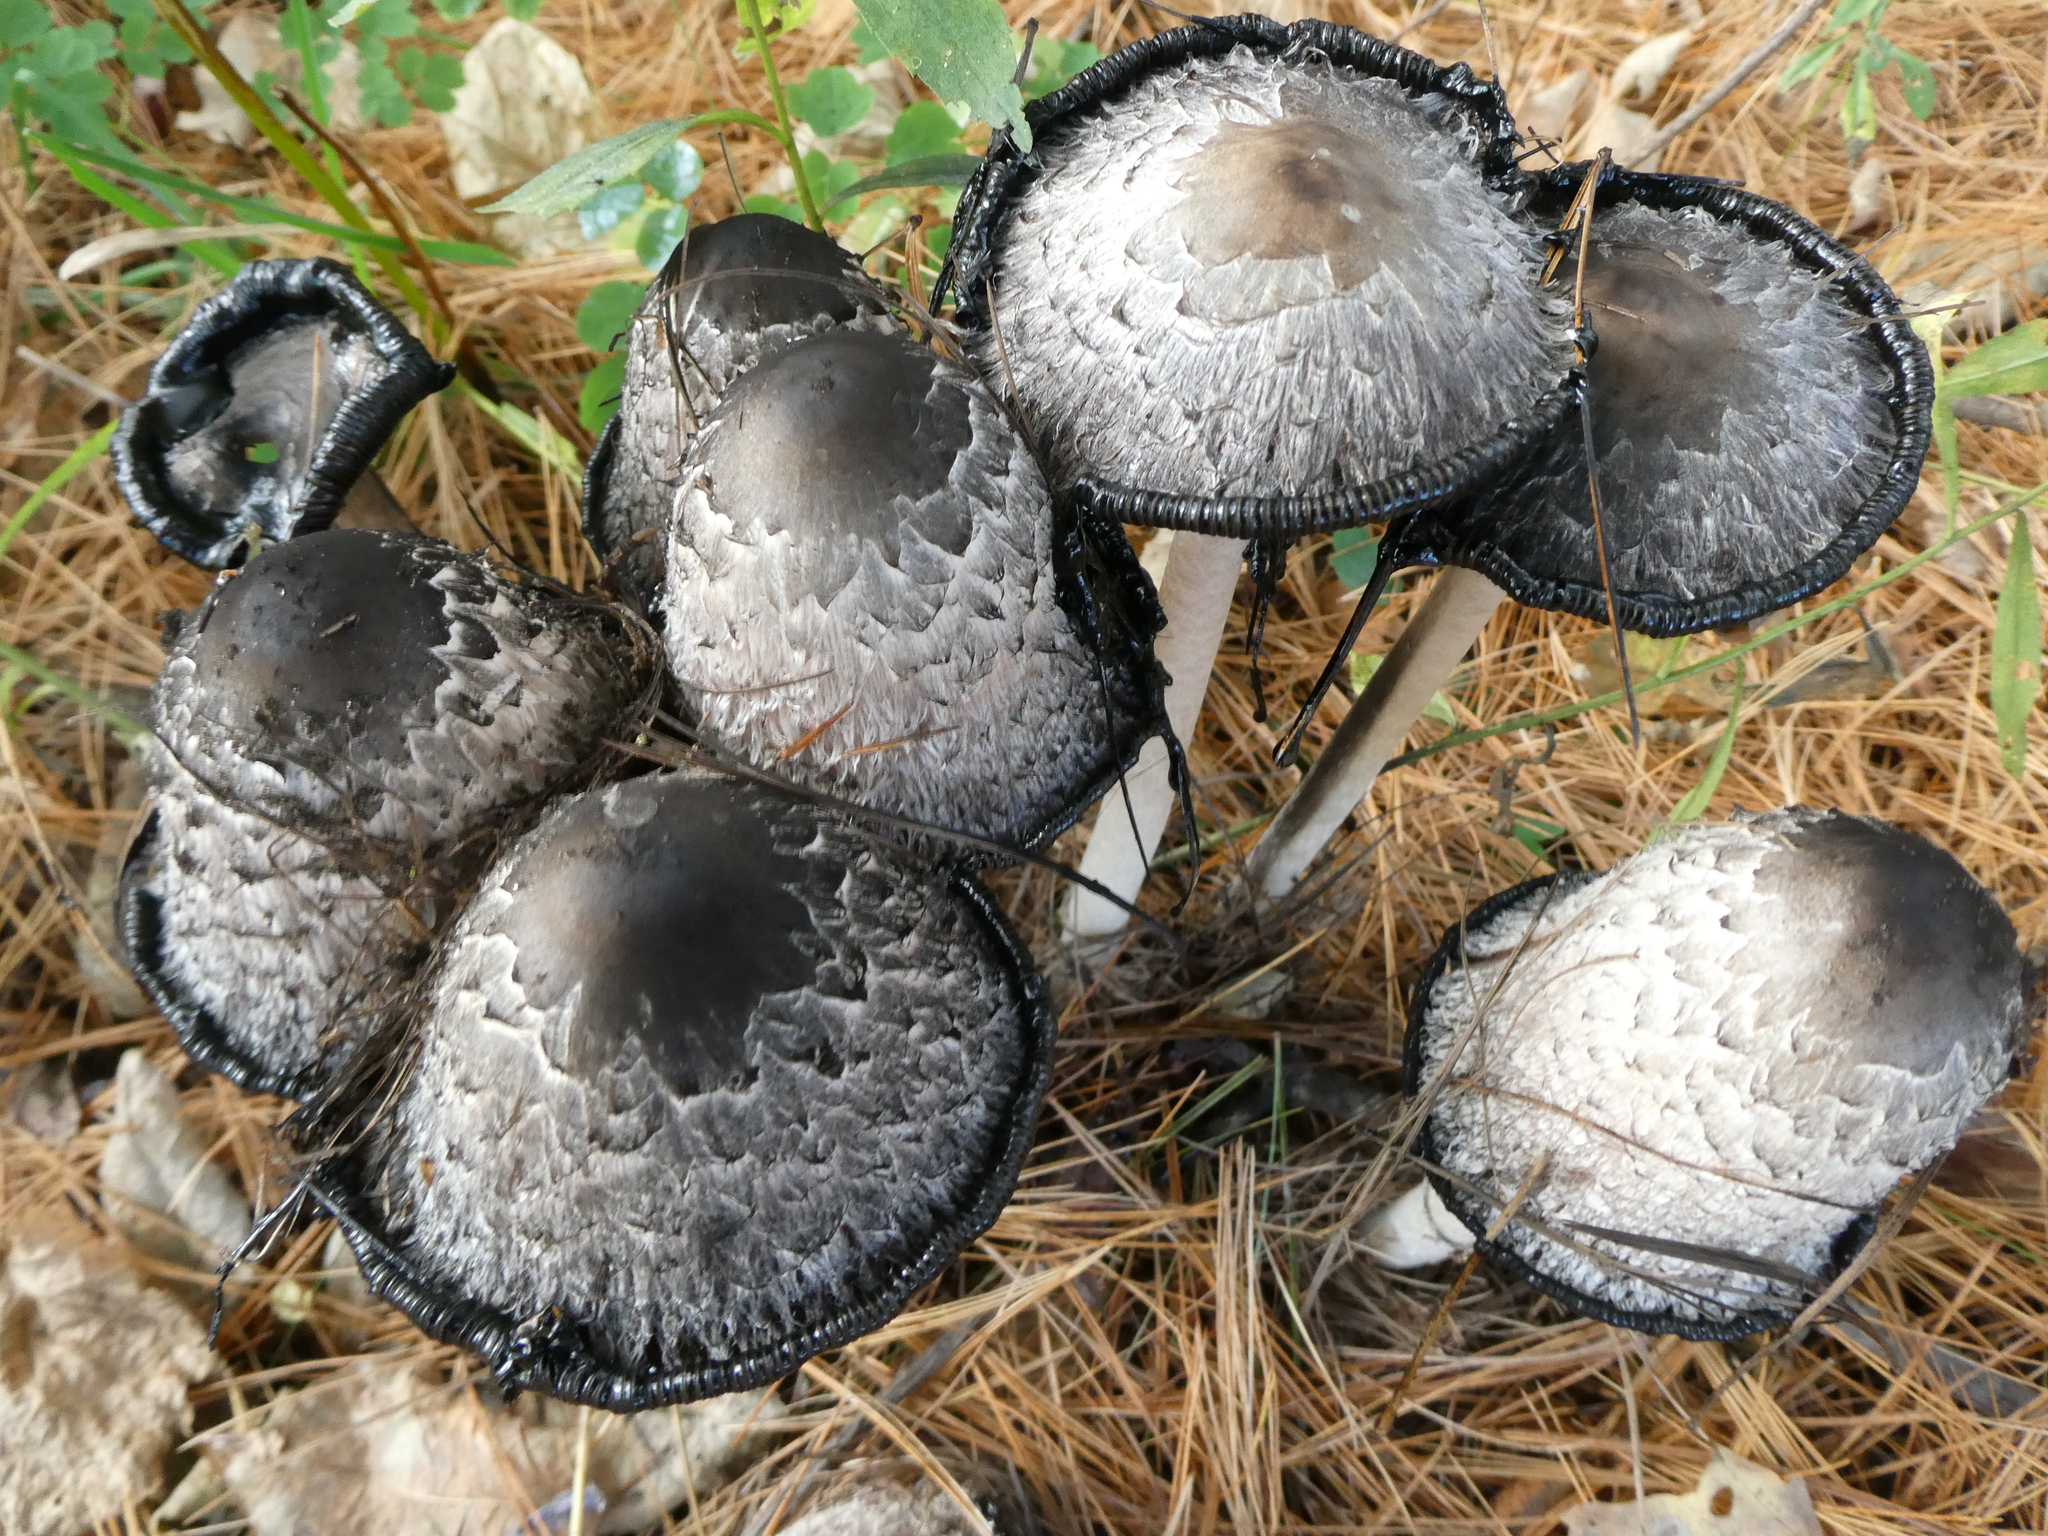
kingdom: Fungi
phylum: Basidiomycota
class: Agaricomycetes
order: Agaricales
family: Agaricaceae
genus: Coprinus
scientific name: Coprinus comatus
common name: Lawyer's wig
